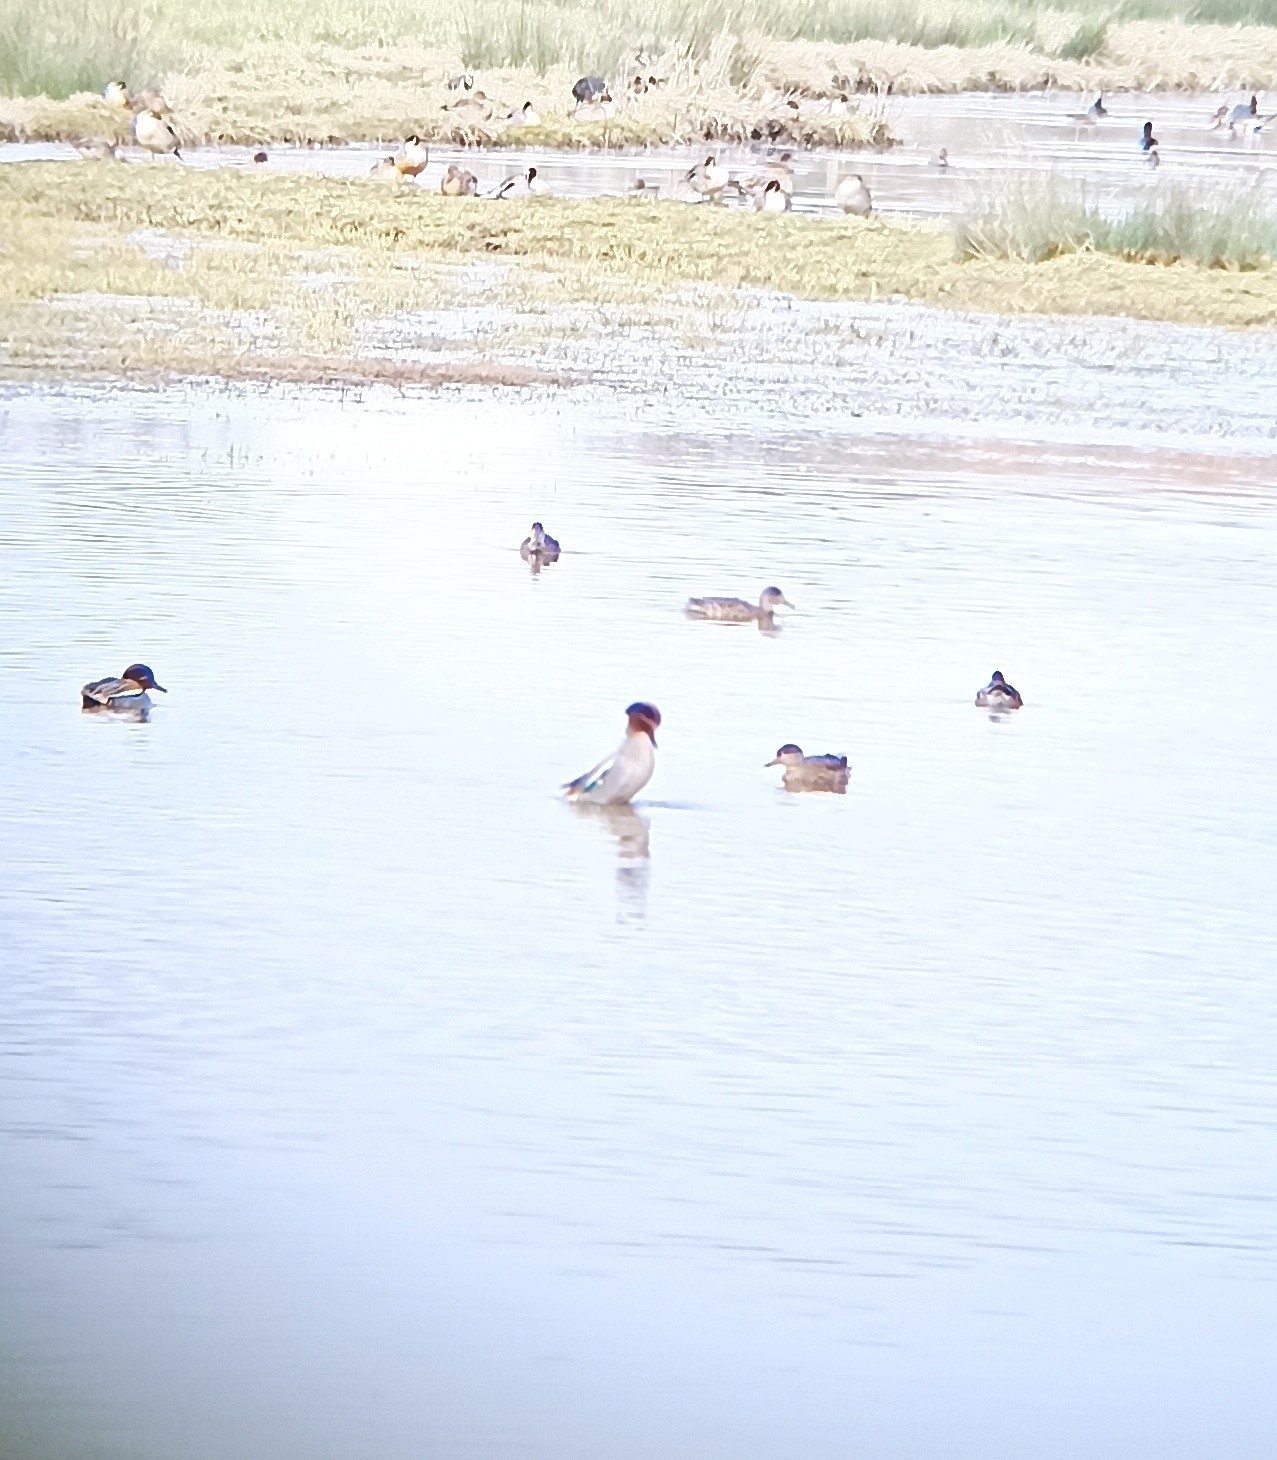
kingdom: Animalia
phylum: Chordata
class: Aves
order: Anseriformes
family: Anatidae
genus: Anas
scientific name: Anas crecca
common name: Eurasian teal
